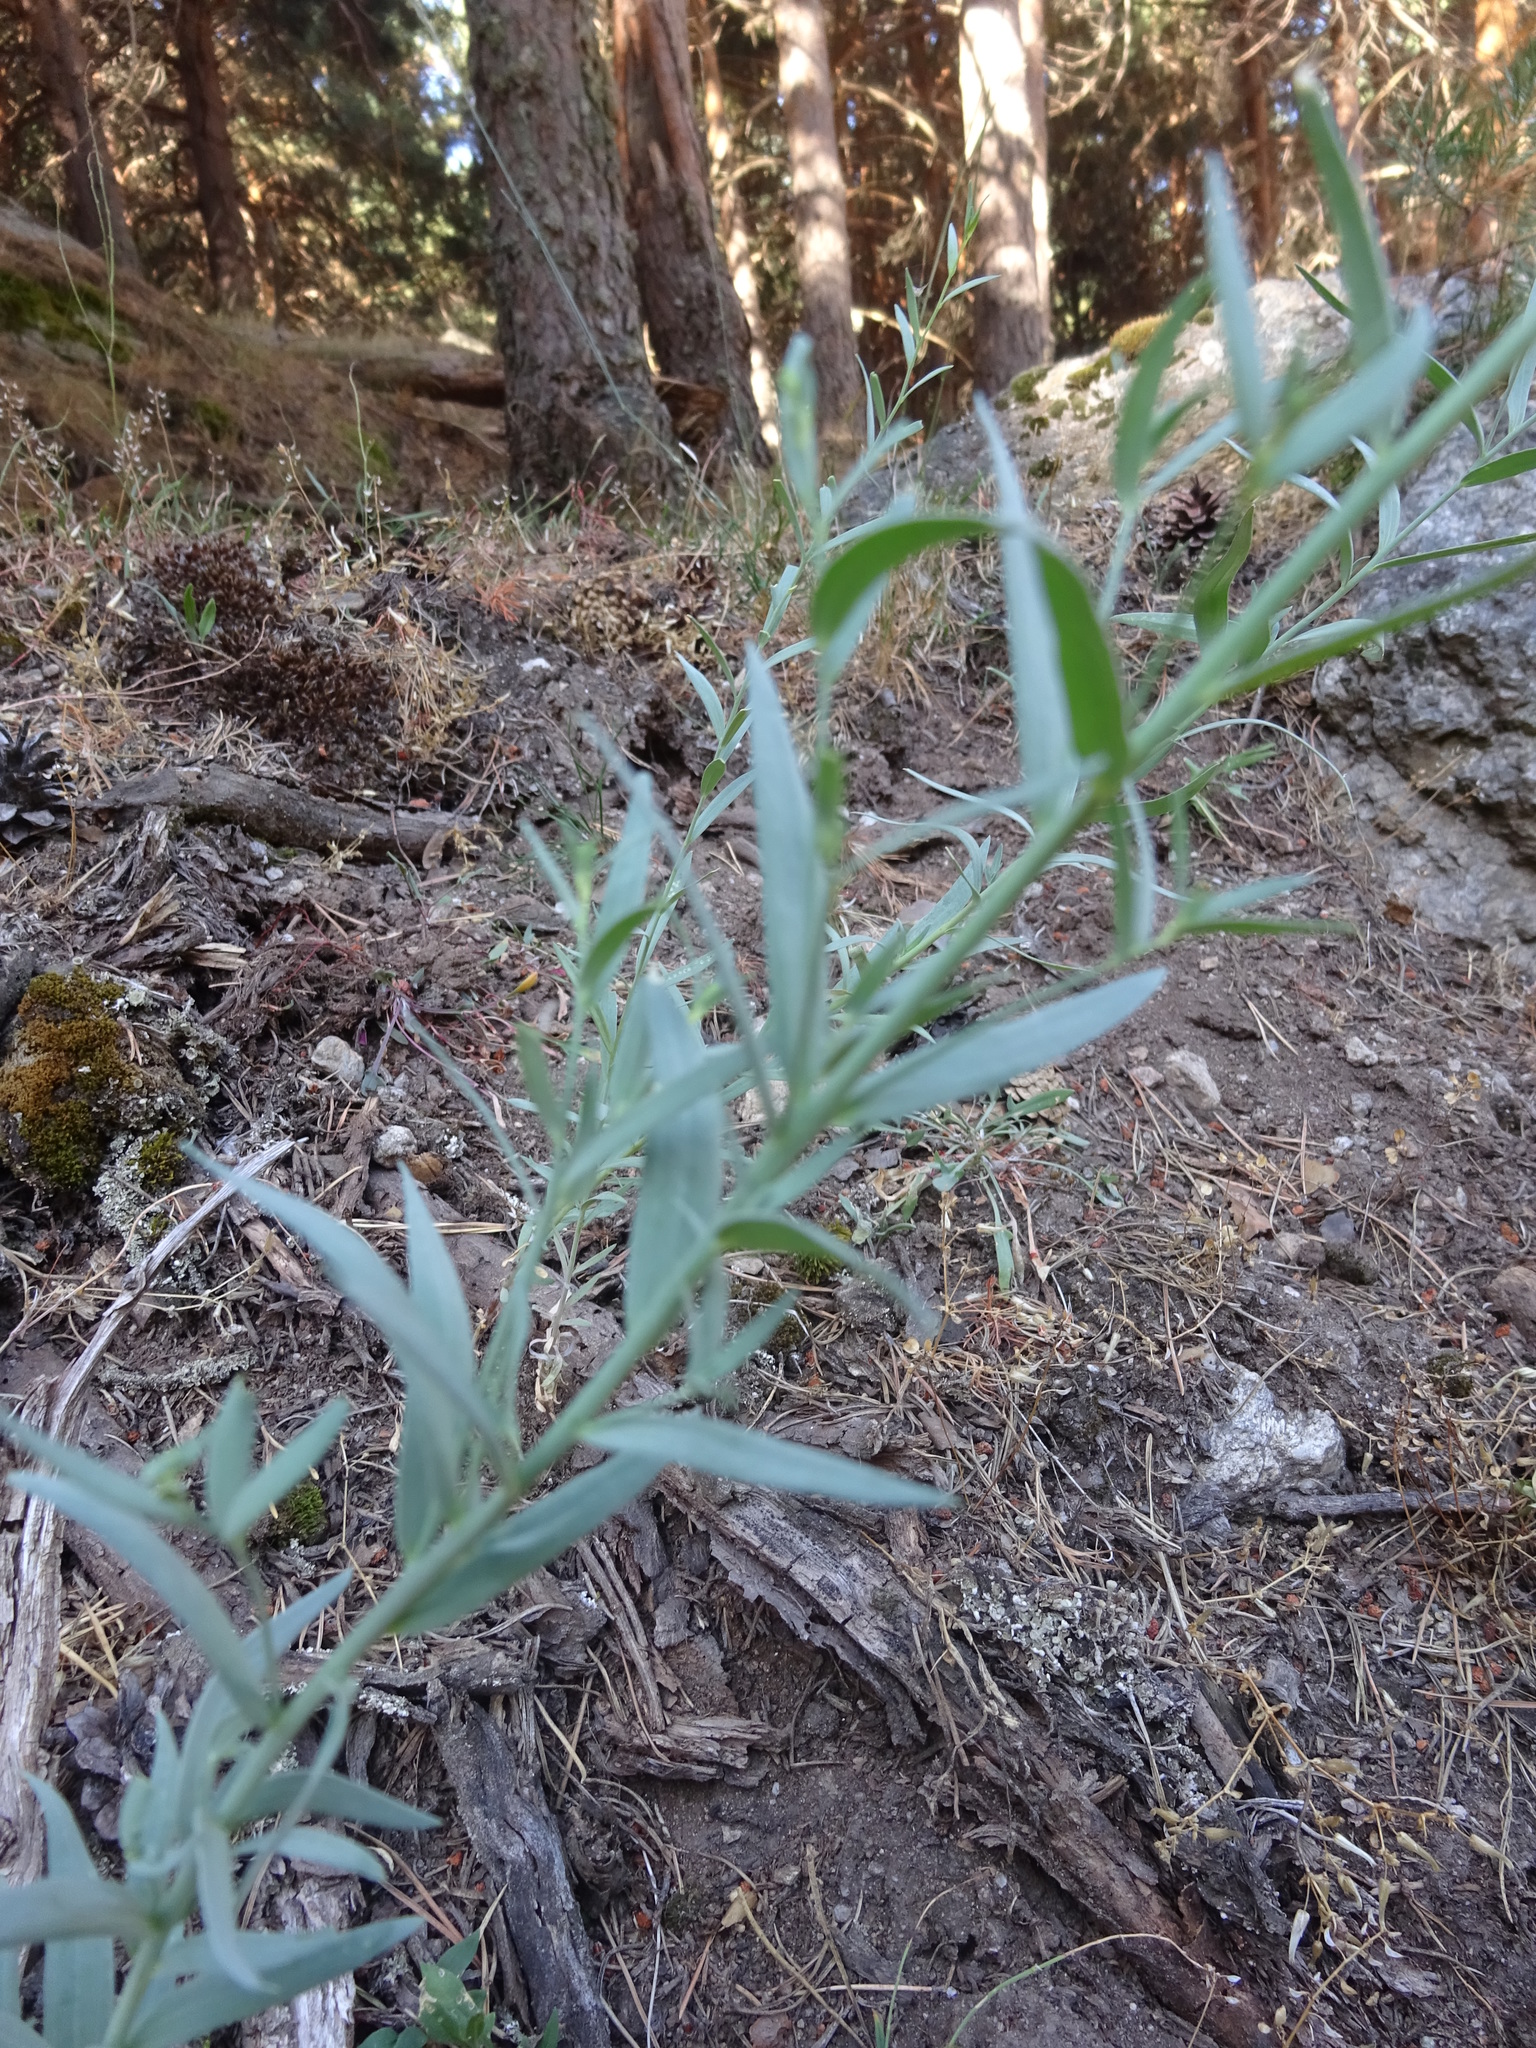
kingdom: Plantae
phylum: Tracheophyta
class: Magnoliopsida
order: Lamiales
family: Plantaginaceae
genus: Linaria
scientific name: Linaria nivea
